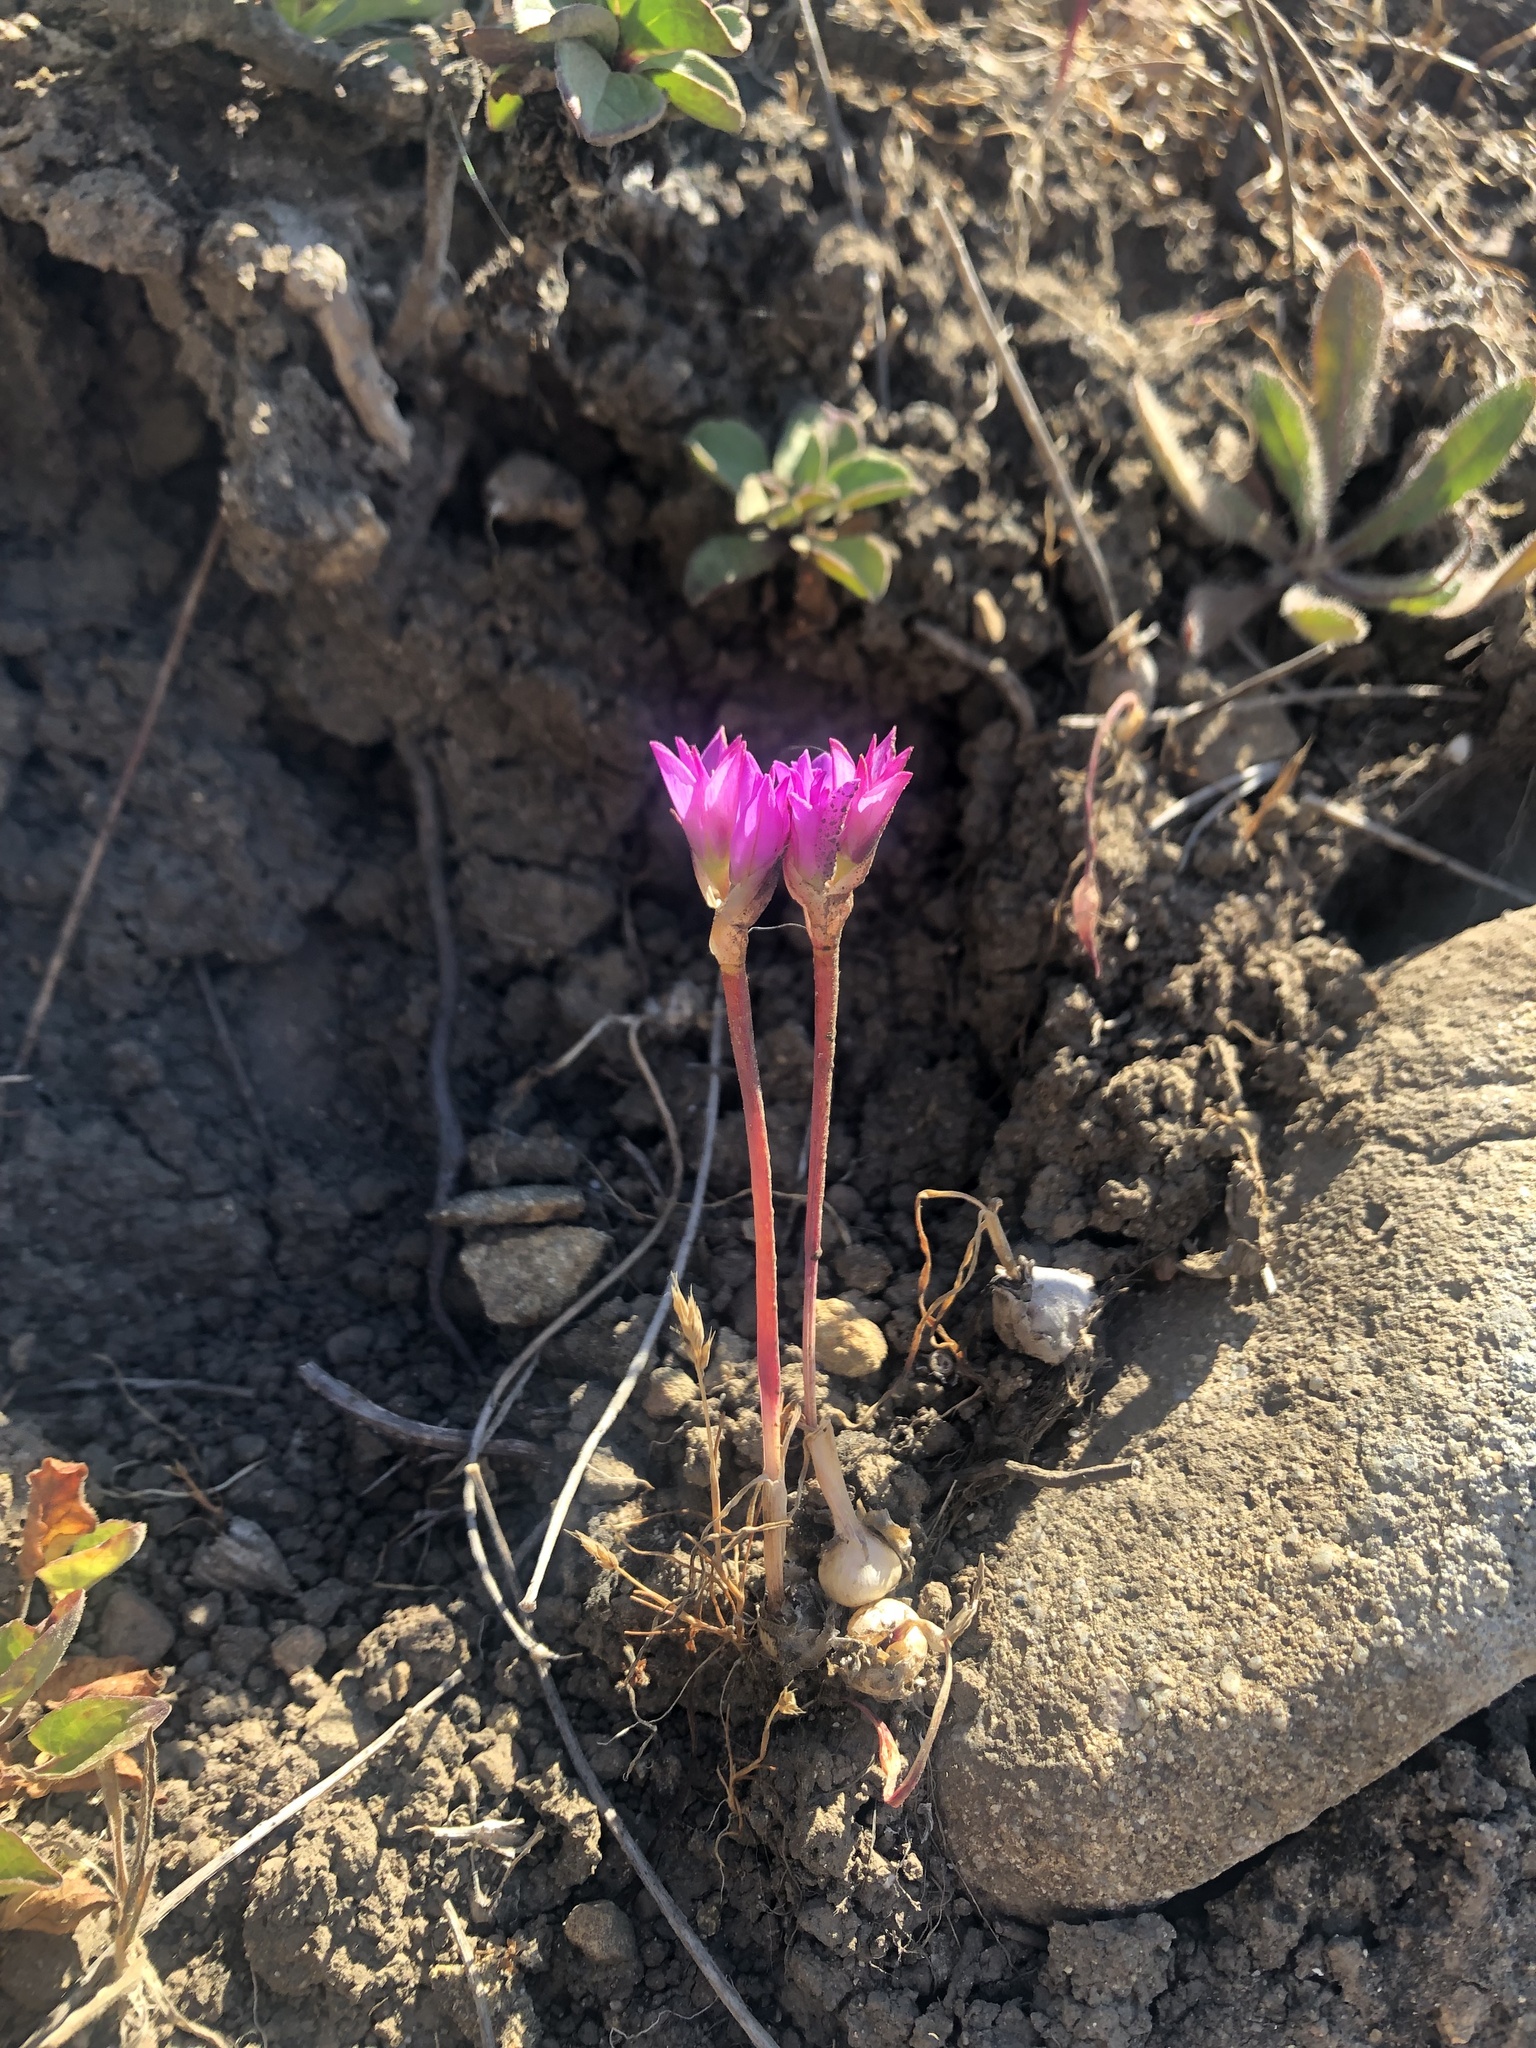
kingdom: Plantae
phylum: Tracheophyta
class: Liliopsida
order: Asparagales
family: Amaryllidaceae
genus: Allium
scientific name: Allium dichlamydeum
